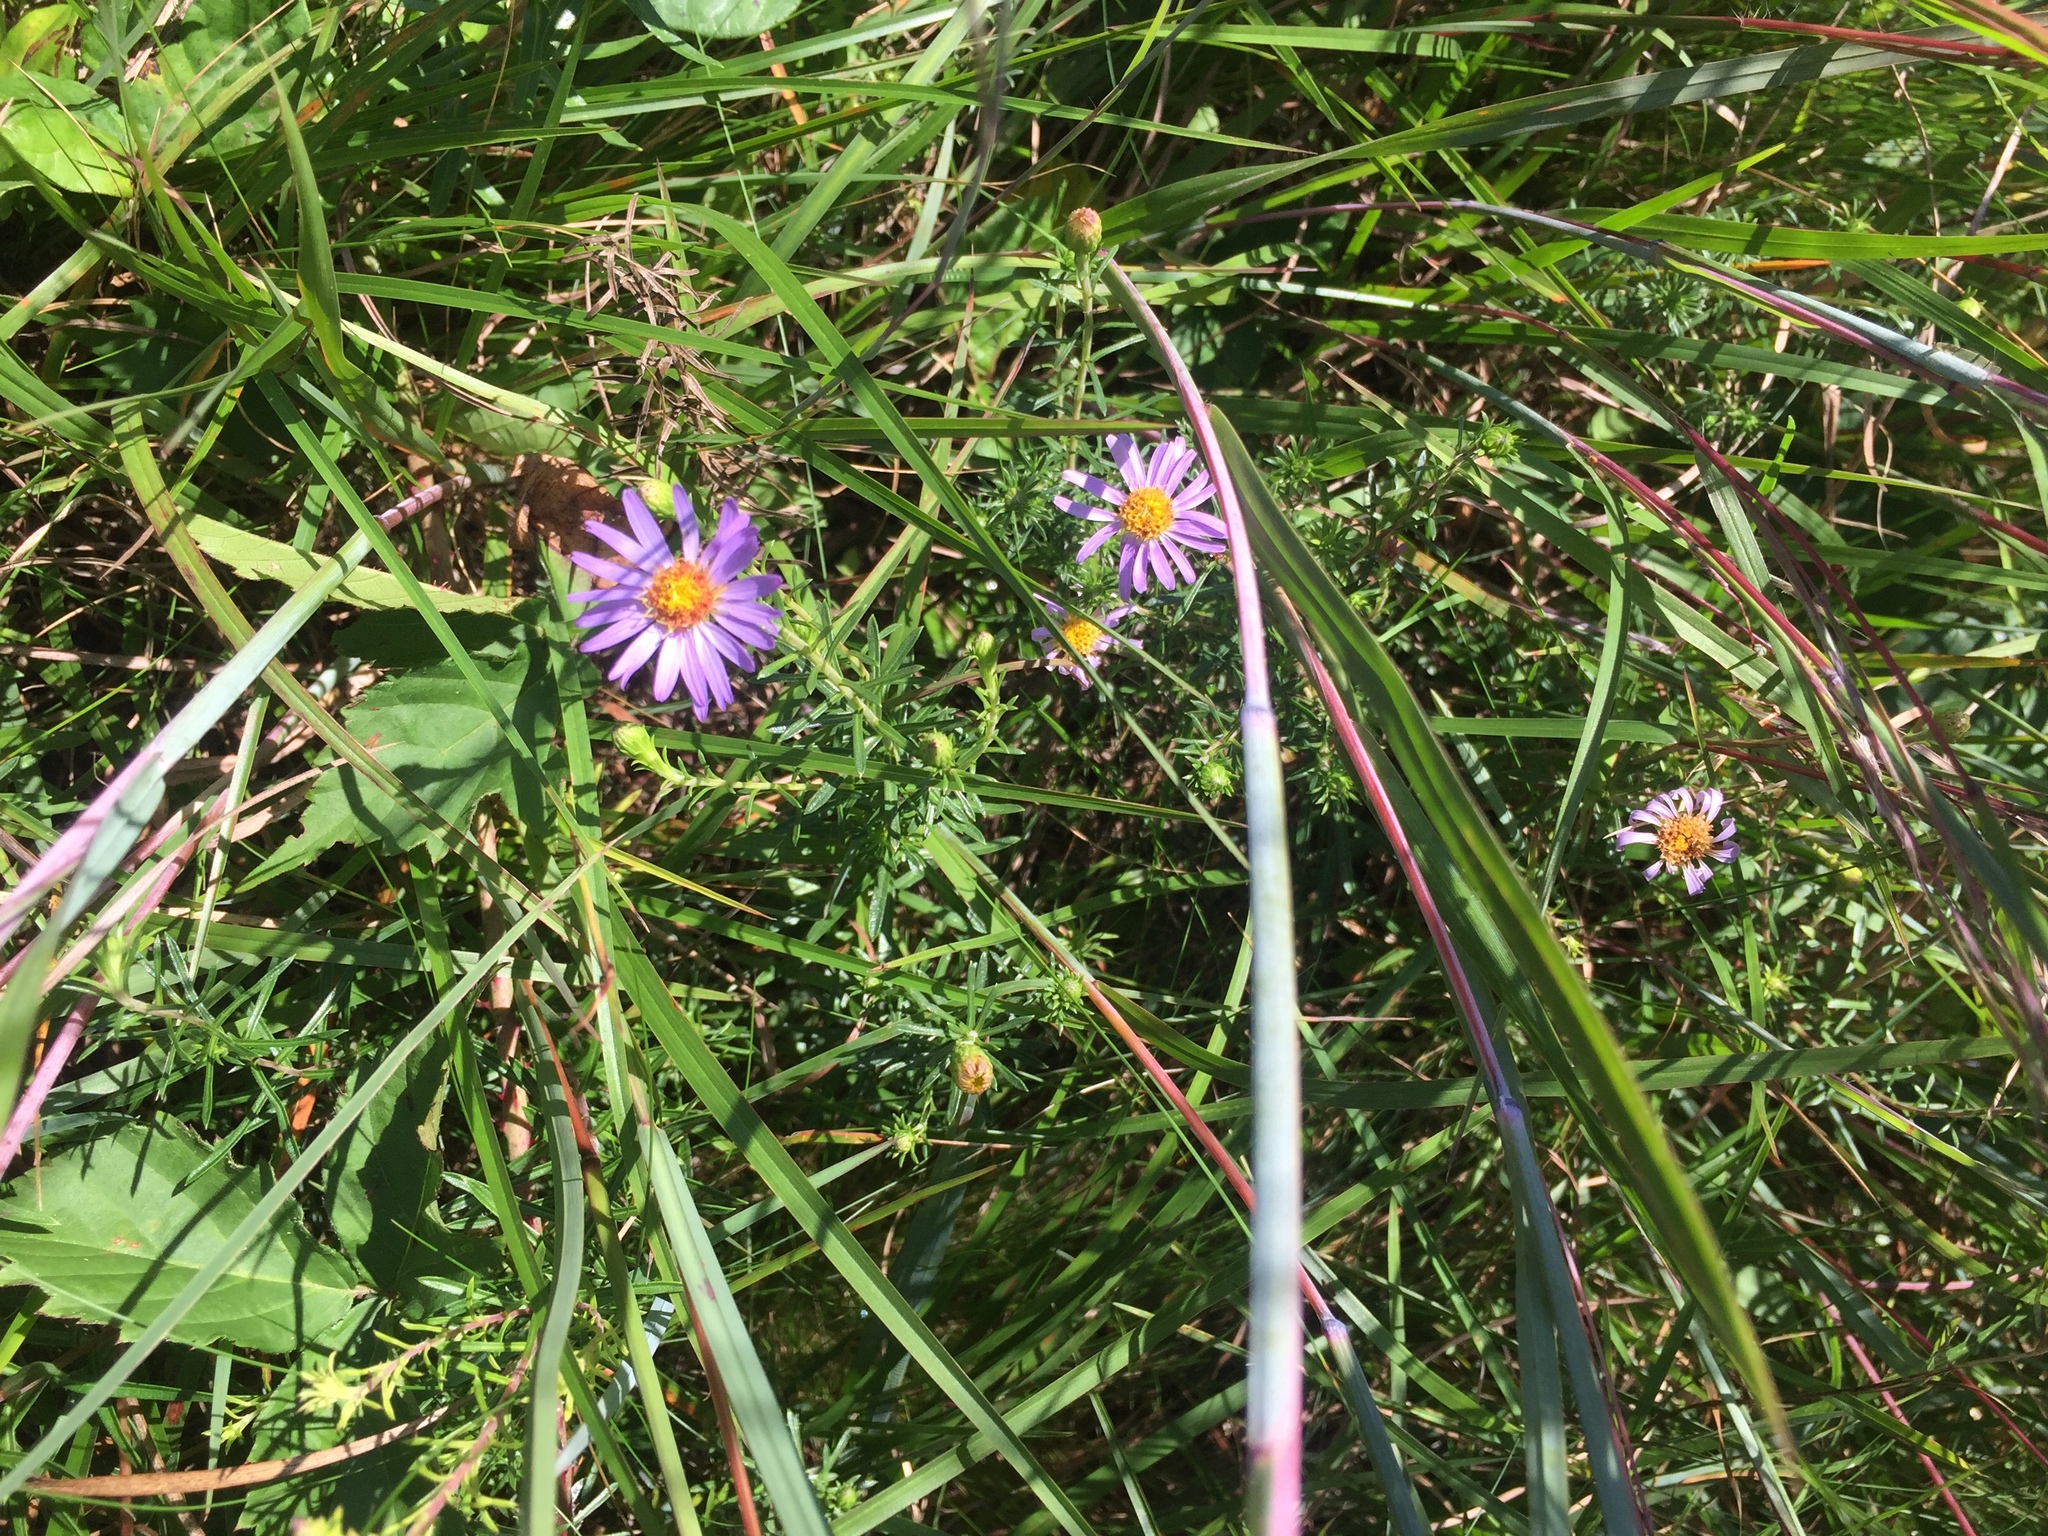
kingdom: Plantae
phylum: Tracheophyta
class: Magnoliopsida
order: Asterales
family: Asteraceae
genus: Ionactis
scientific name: Ionactis linariifolia
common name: Flax-leaf aster
